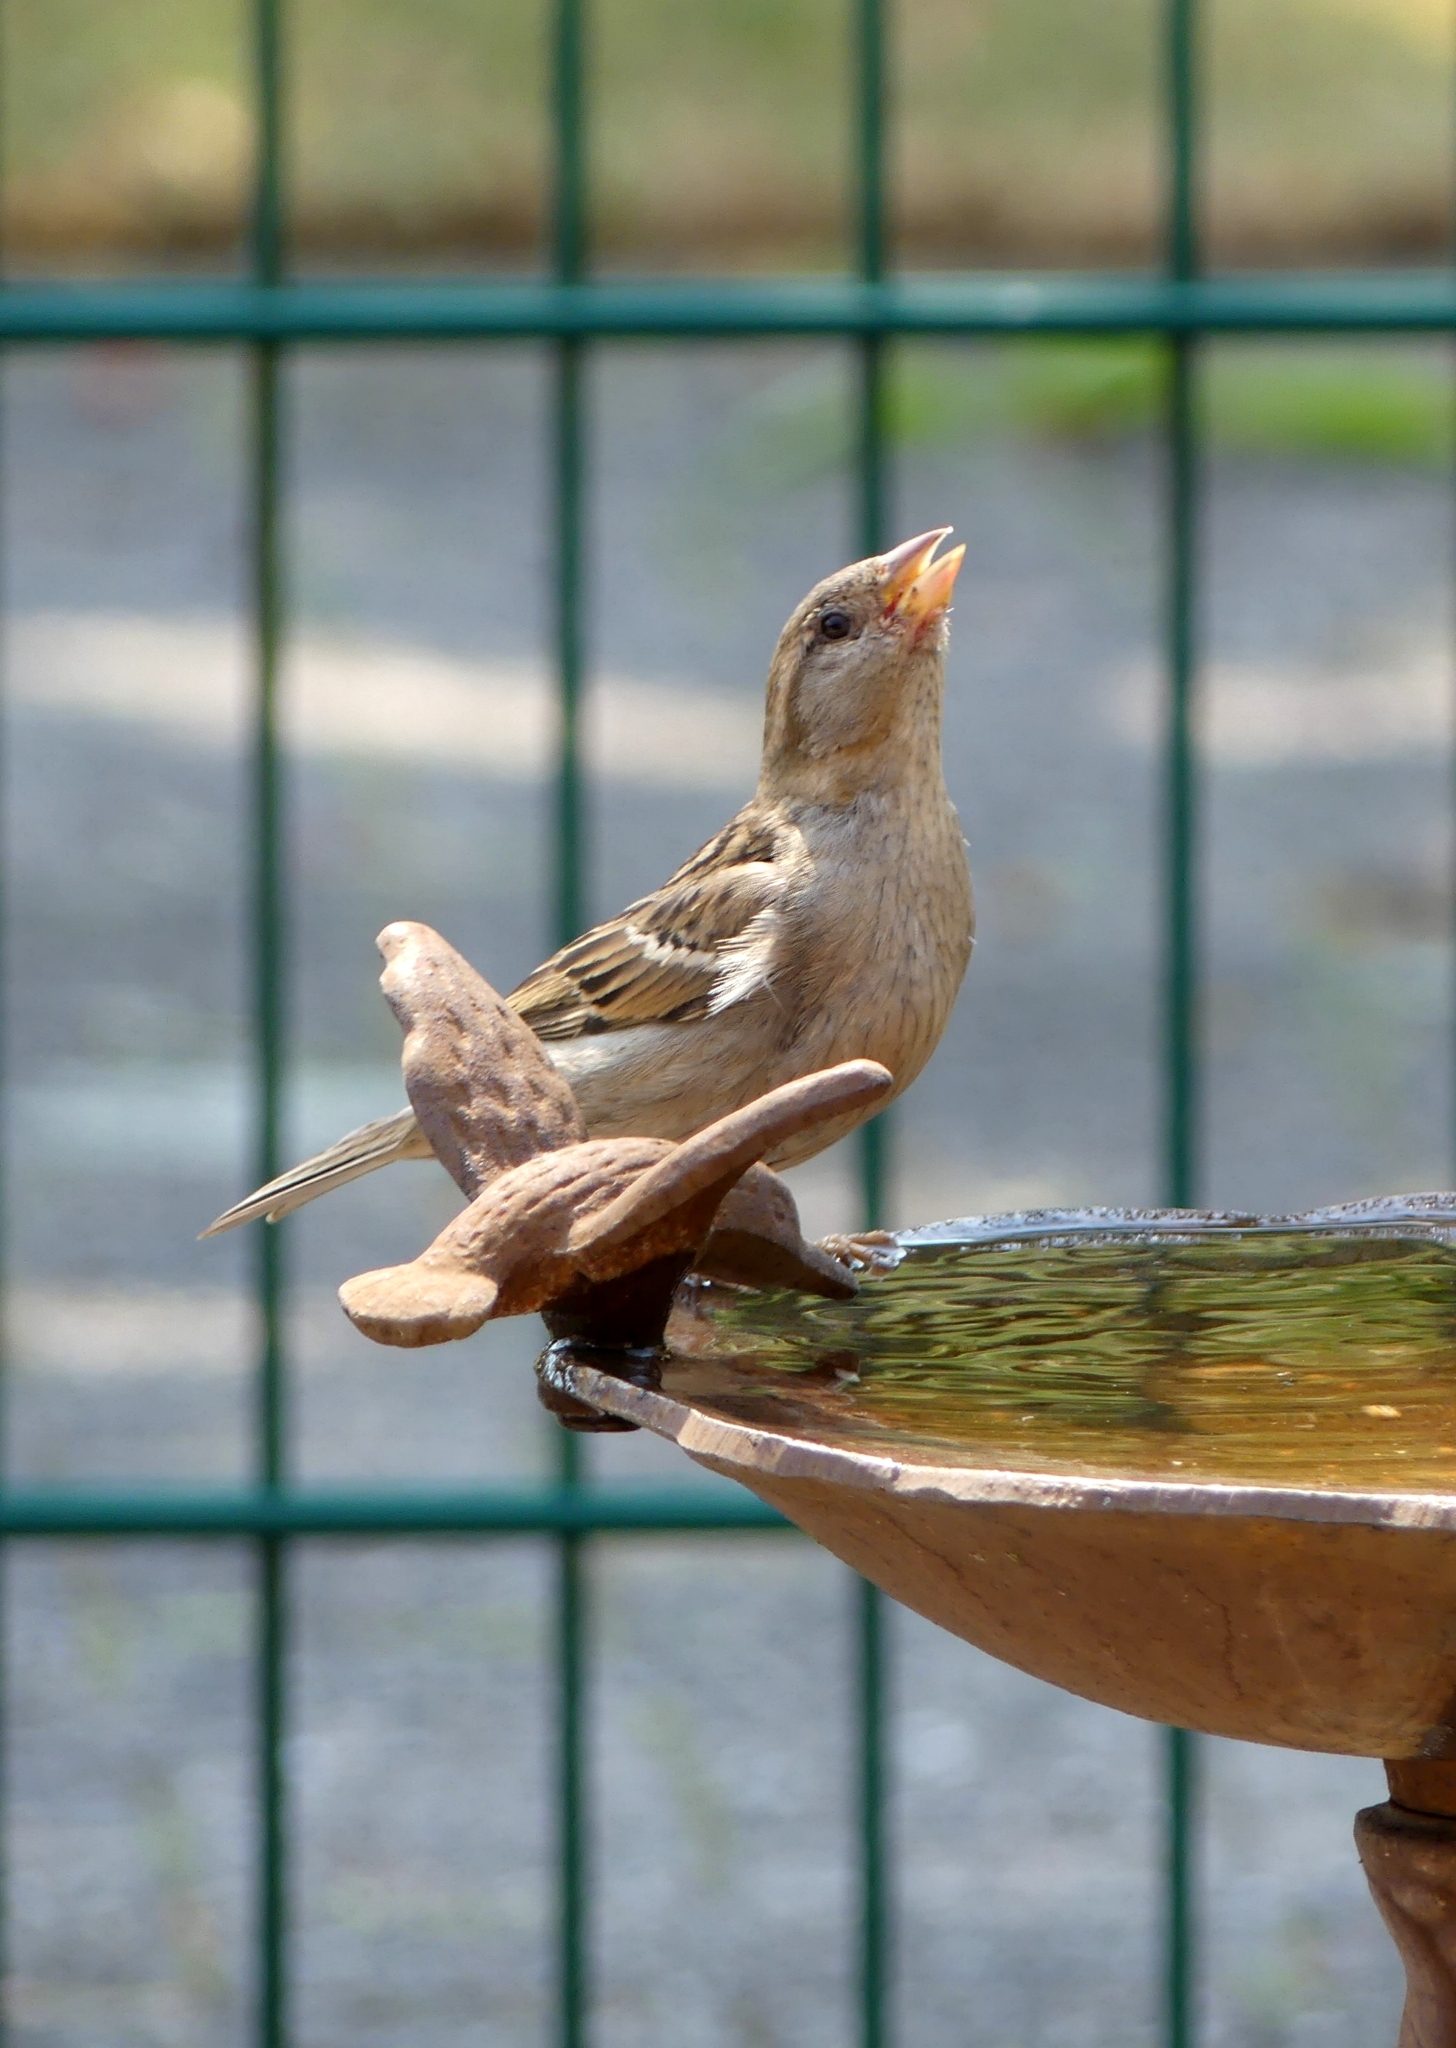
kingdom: Animalia
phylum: Chordata
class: Aves
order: Passeriformes
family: Passeridae
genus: Passer
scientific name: Passer domesticus
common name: House sparrow
